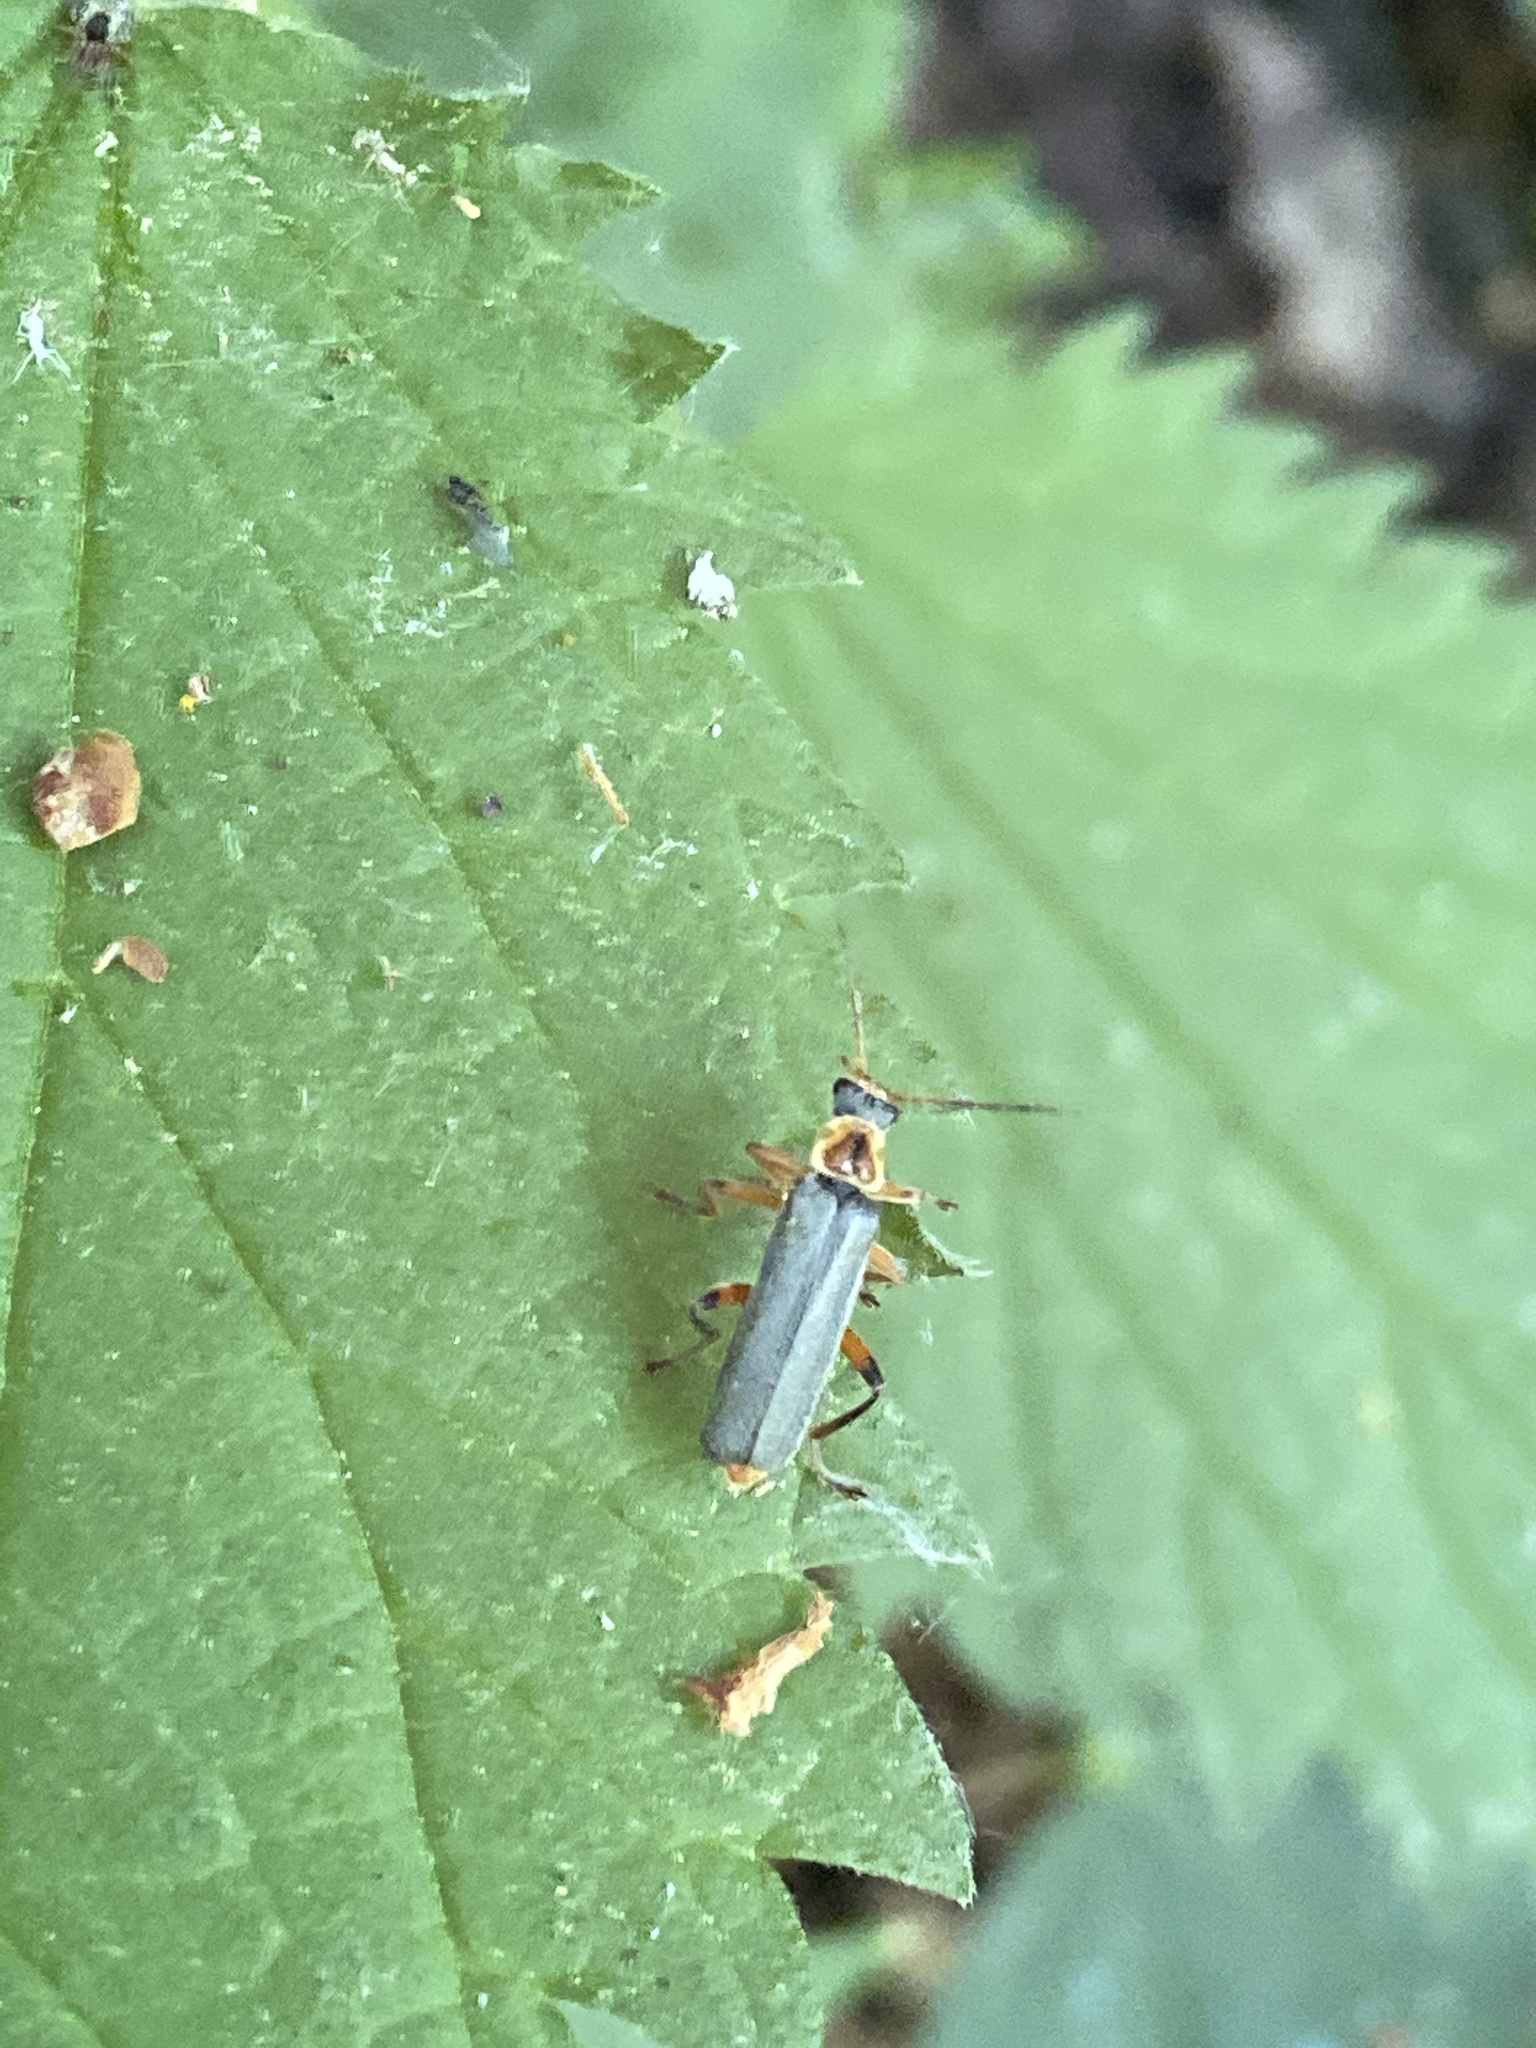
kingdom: Animalia
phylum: Arthropoda
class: Insecta
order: Coleoptera
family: Cantharidae
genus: Cantharis
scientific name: Cantharis nigricans
